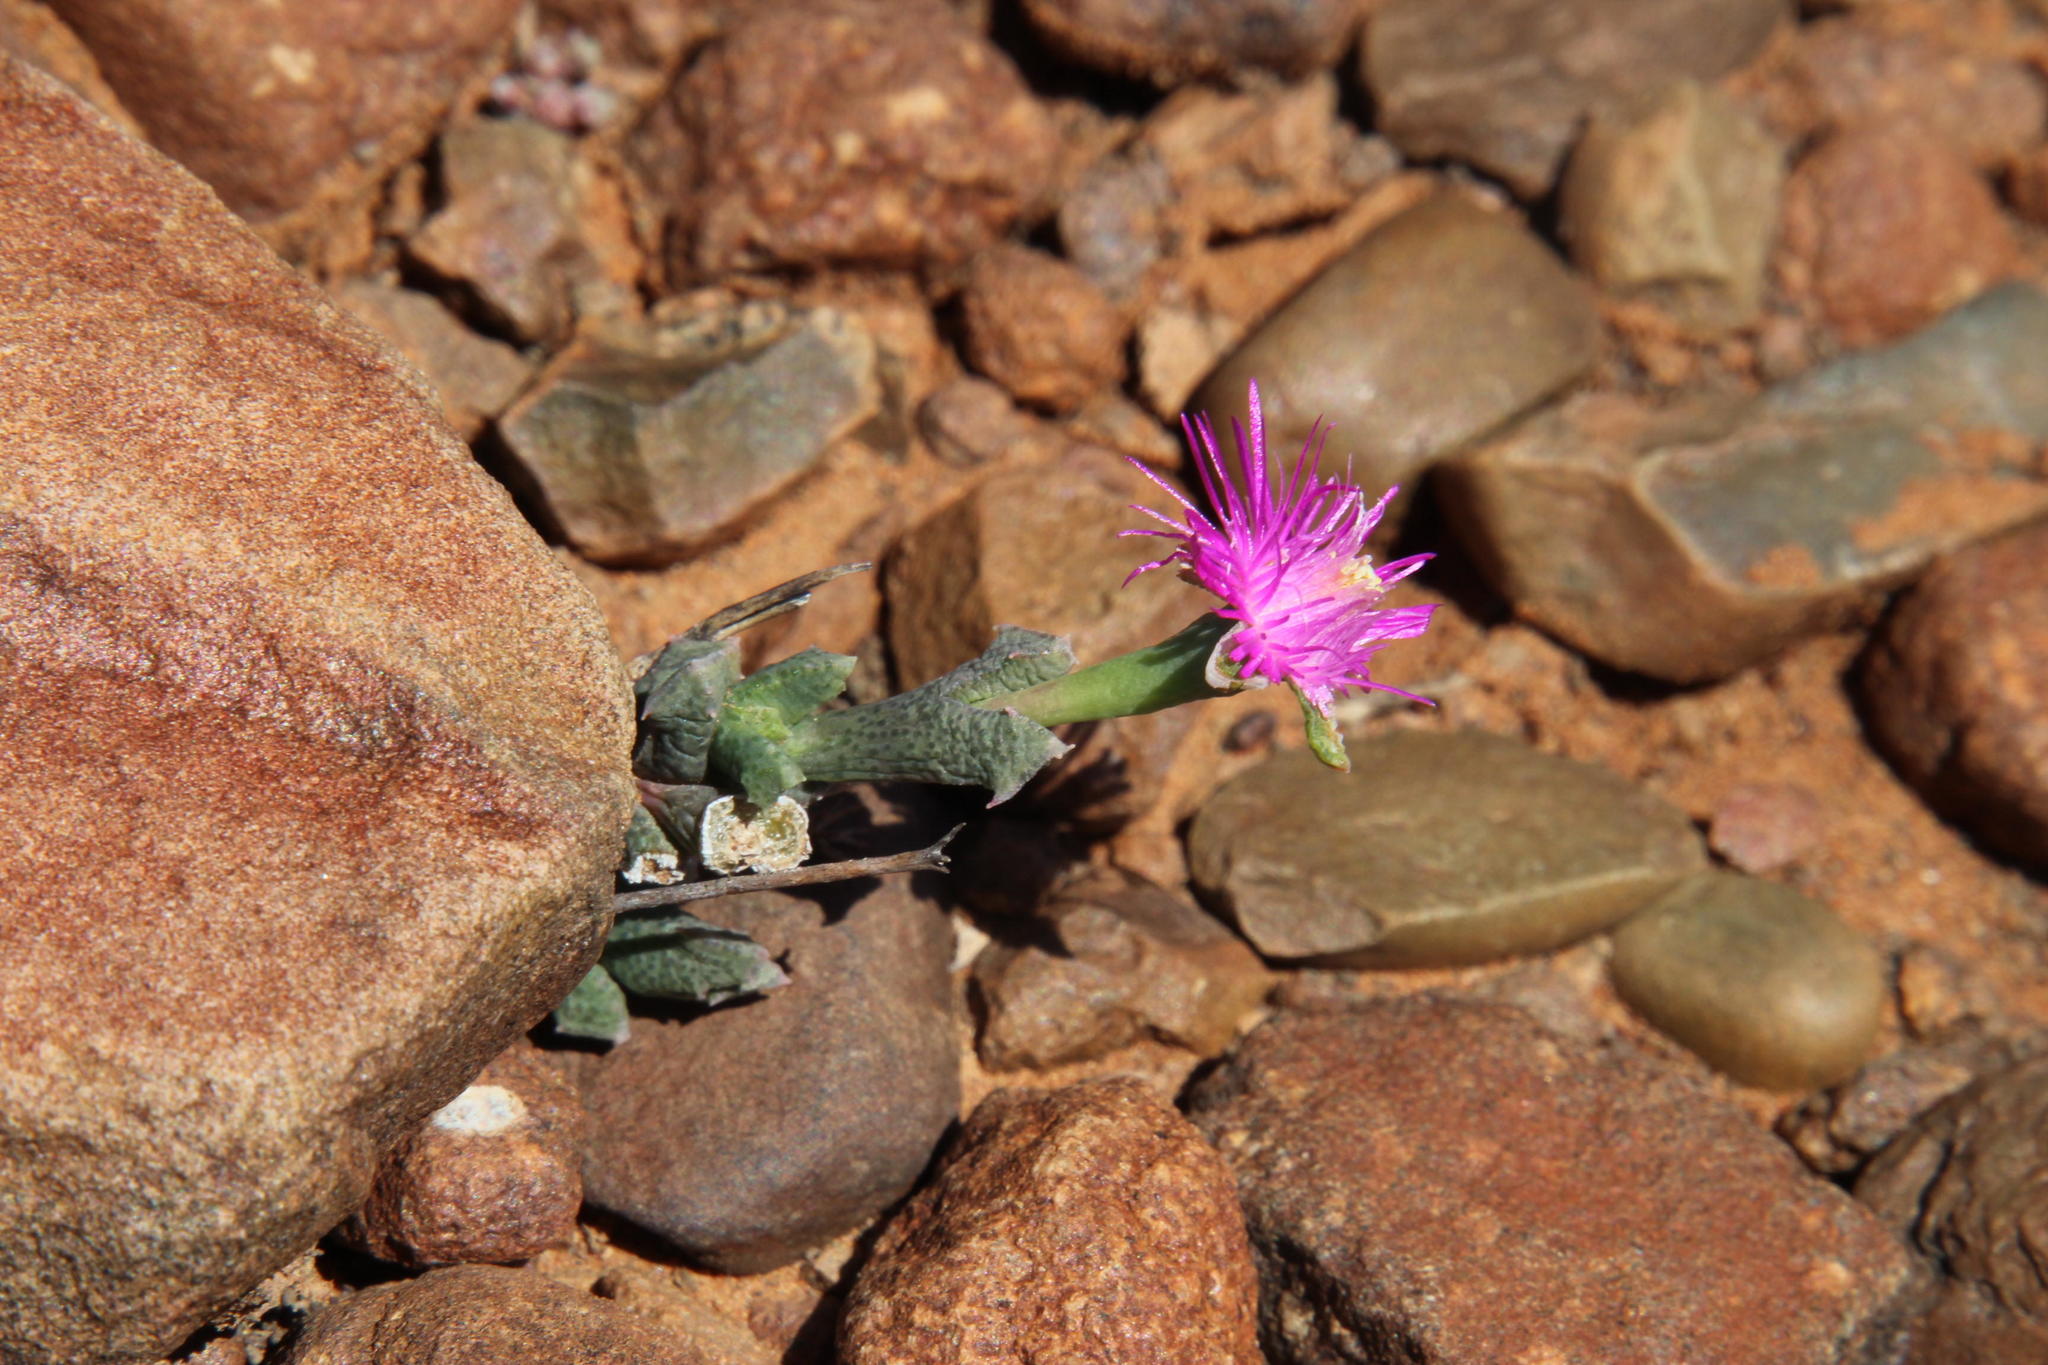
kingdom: Plantae
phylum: Tracheophyta
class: Magnoliopsida
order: Caryophyllales
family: Aizoaceae
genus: Ruschia
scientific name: Ruschia vanderbergiae
